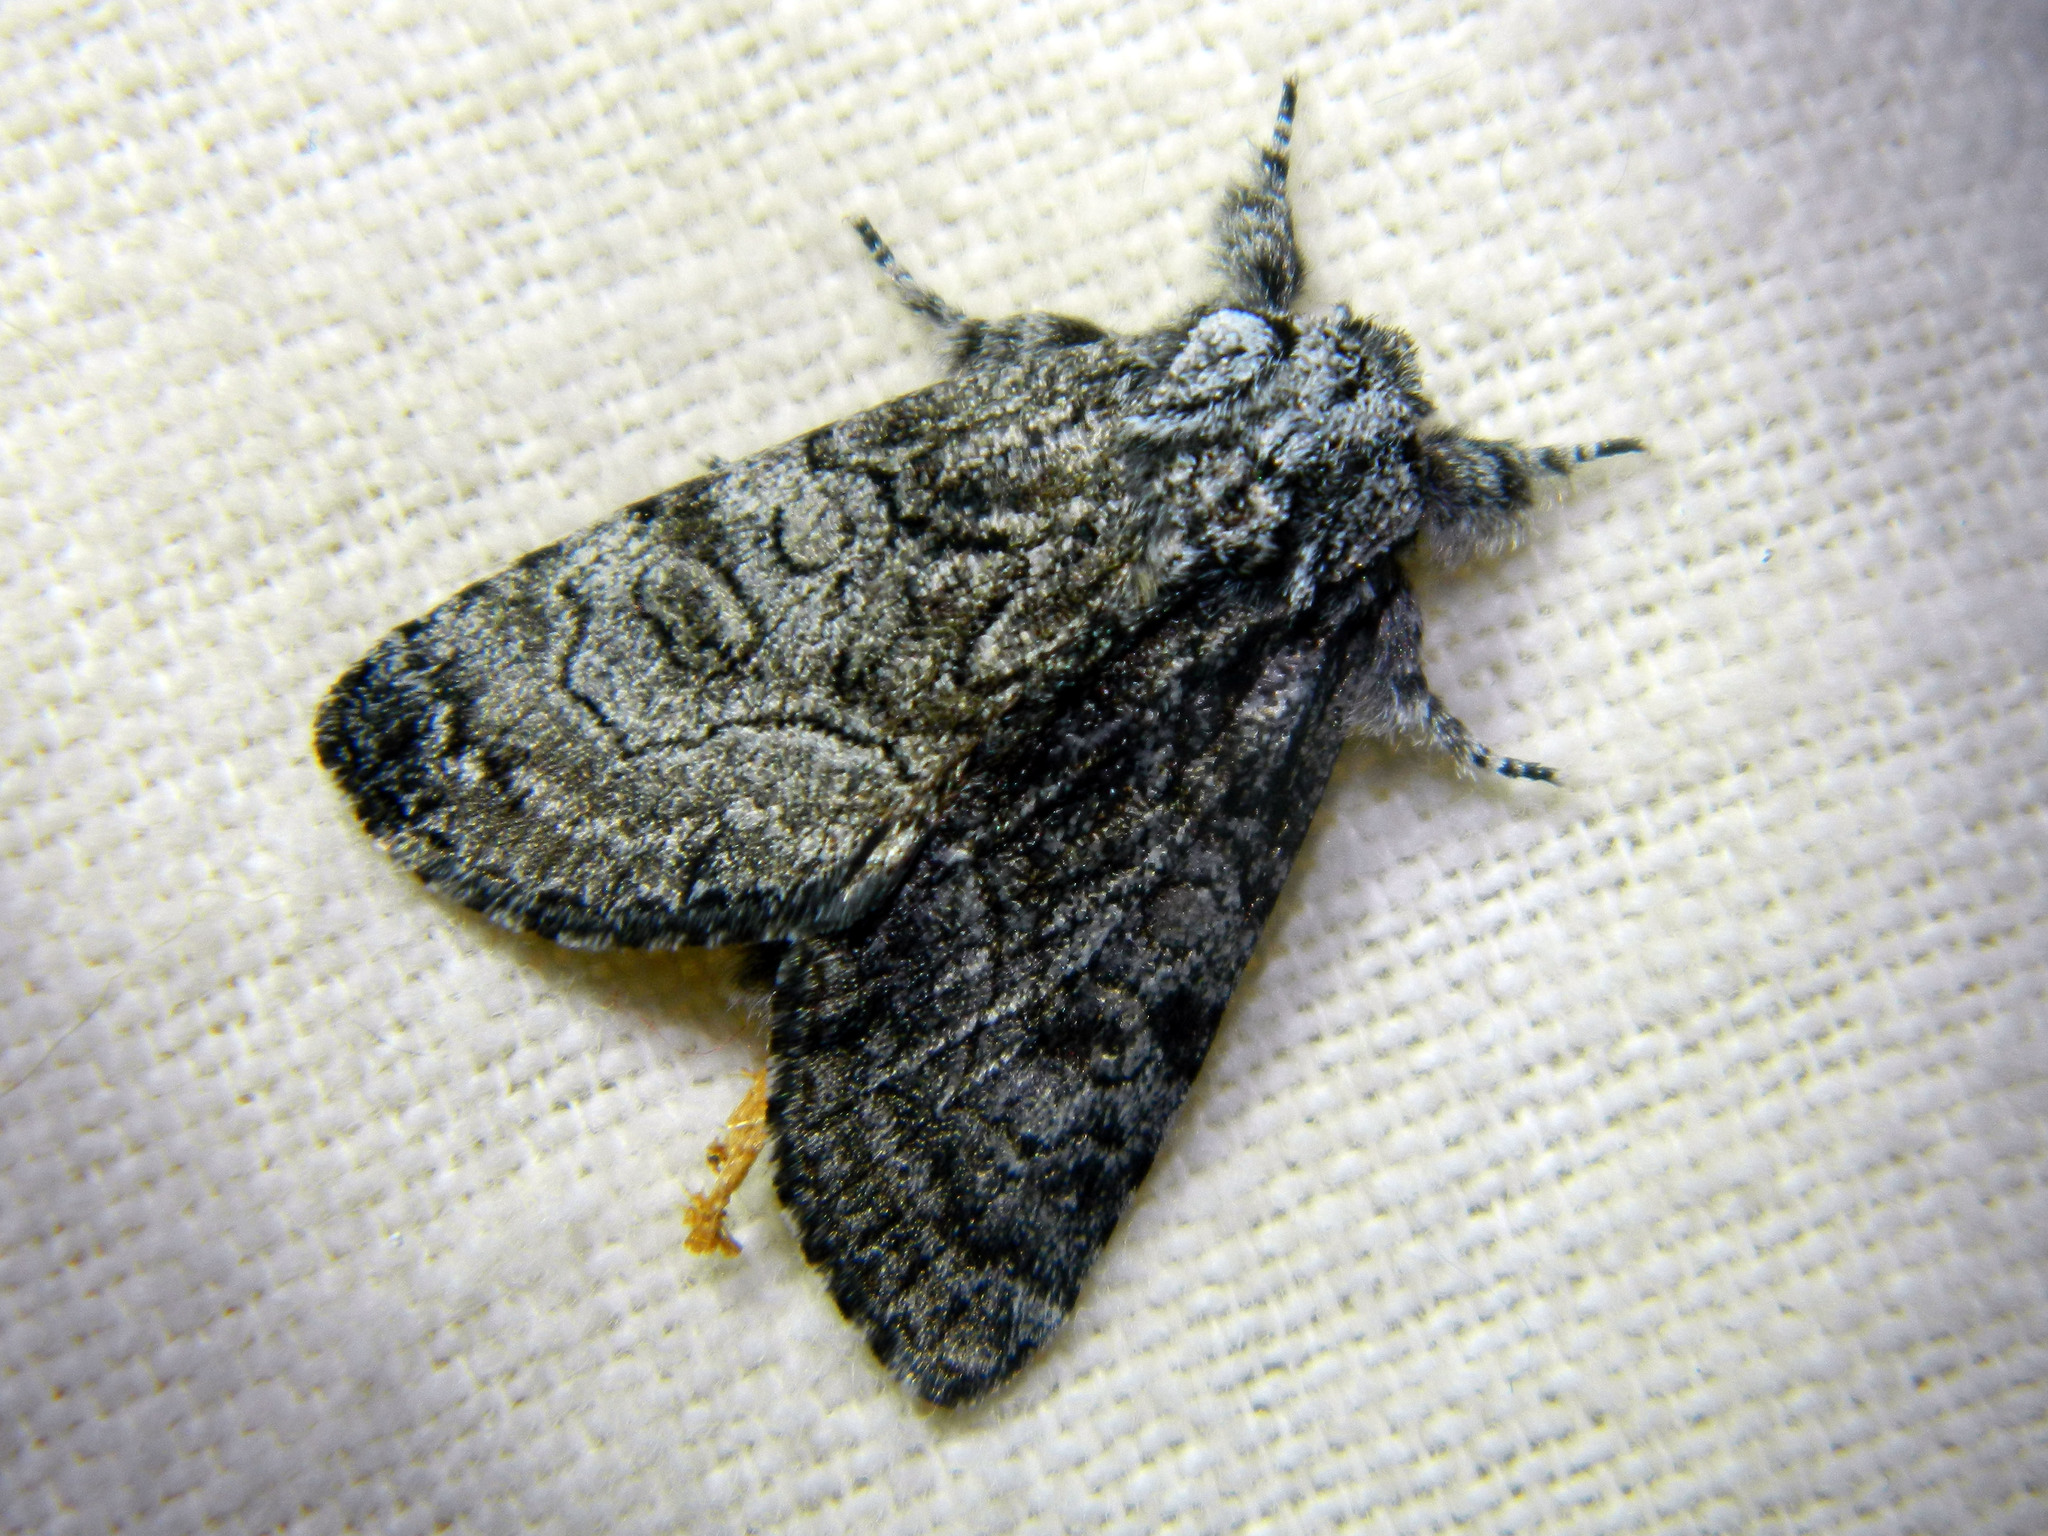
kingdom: Animalia
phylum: Arthropoda
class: Insecta
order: Lepidoptera
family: Noctuidae
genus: Raphia
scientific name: Raphia frater
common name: Brother
